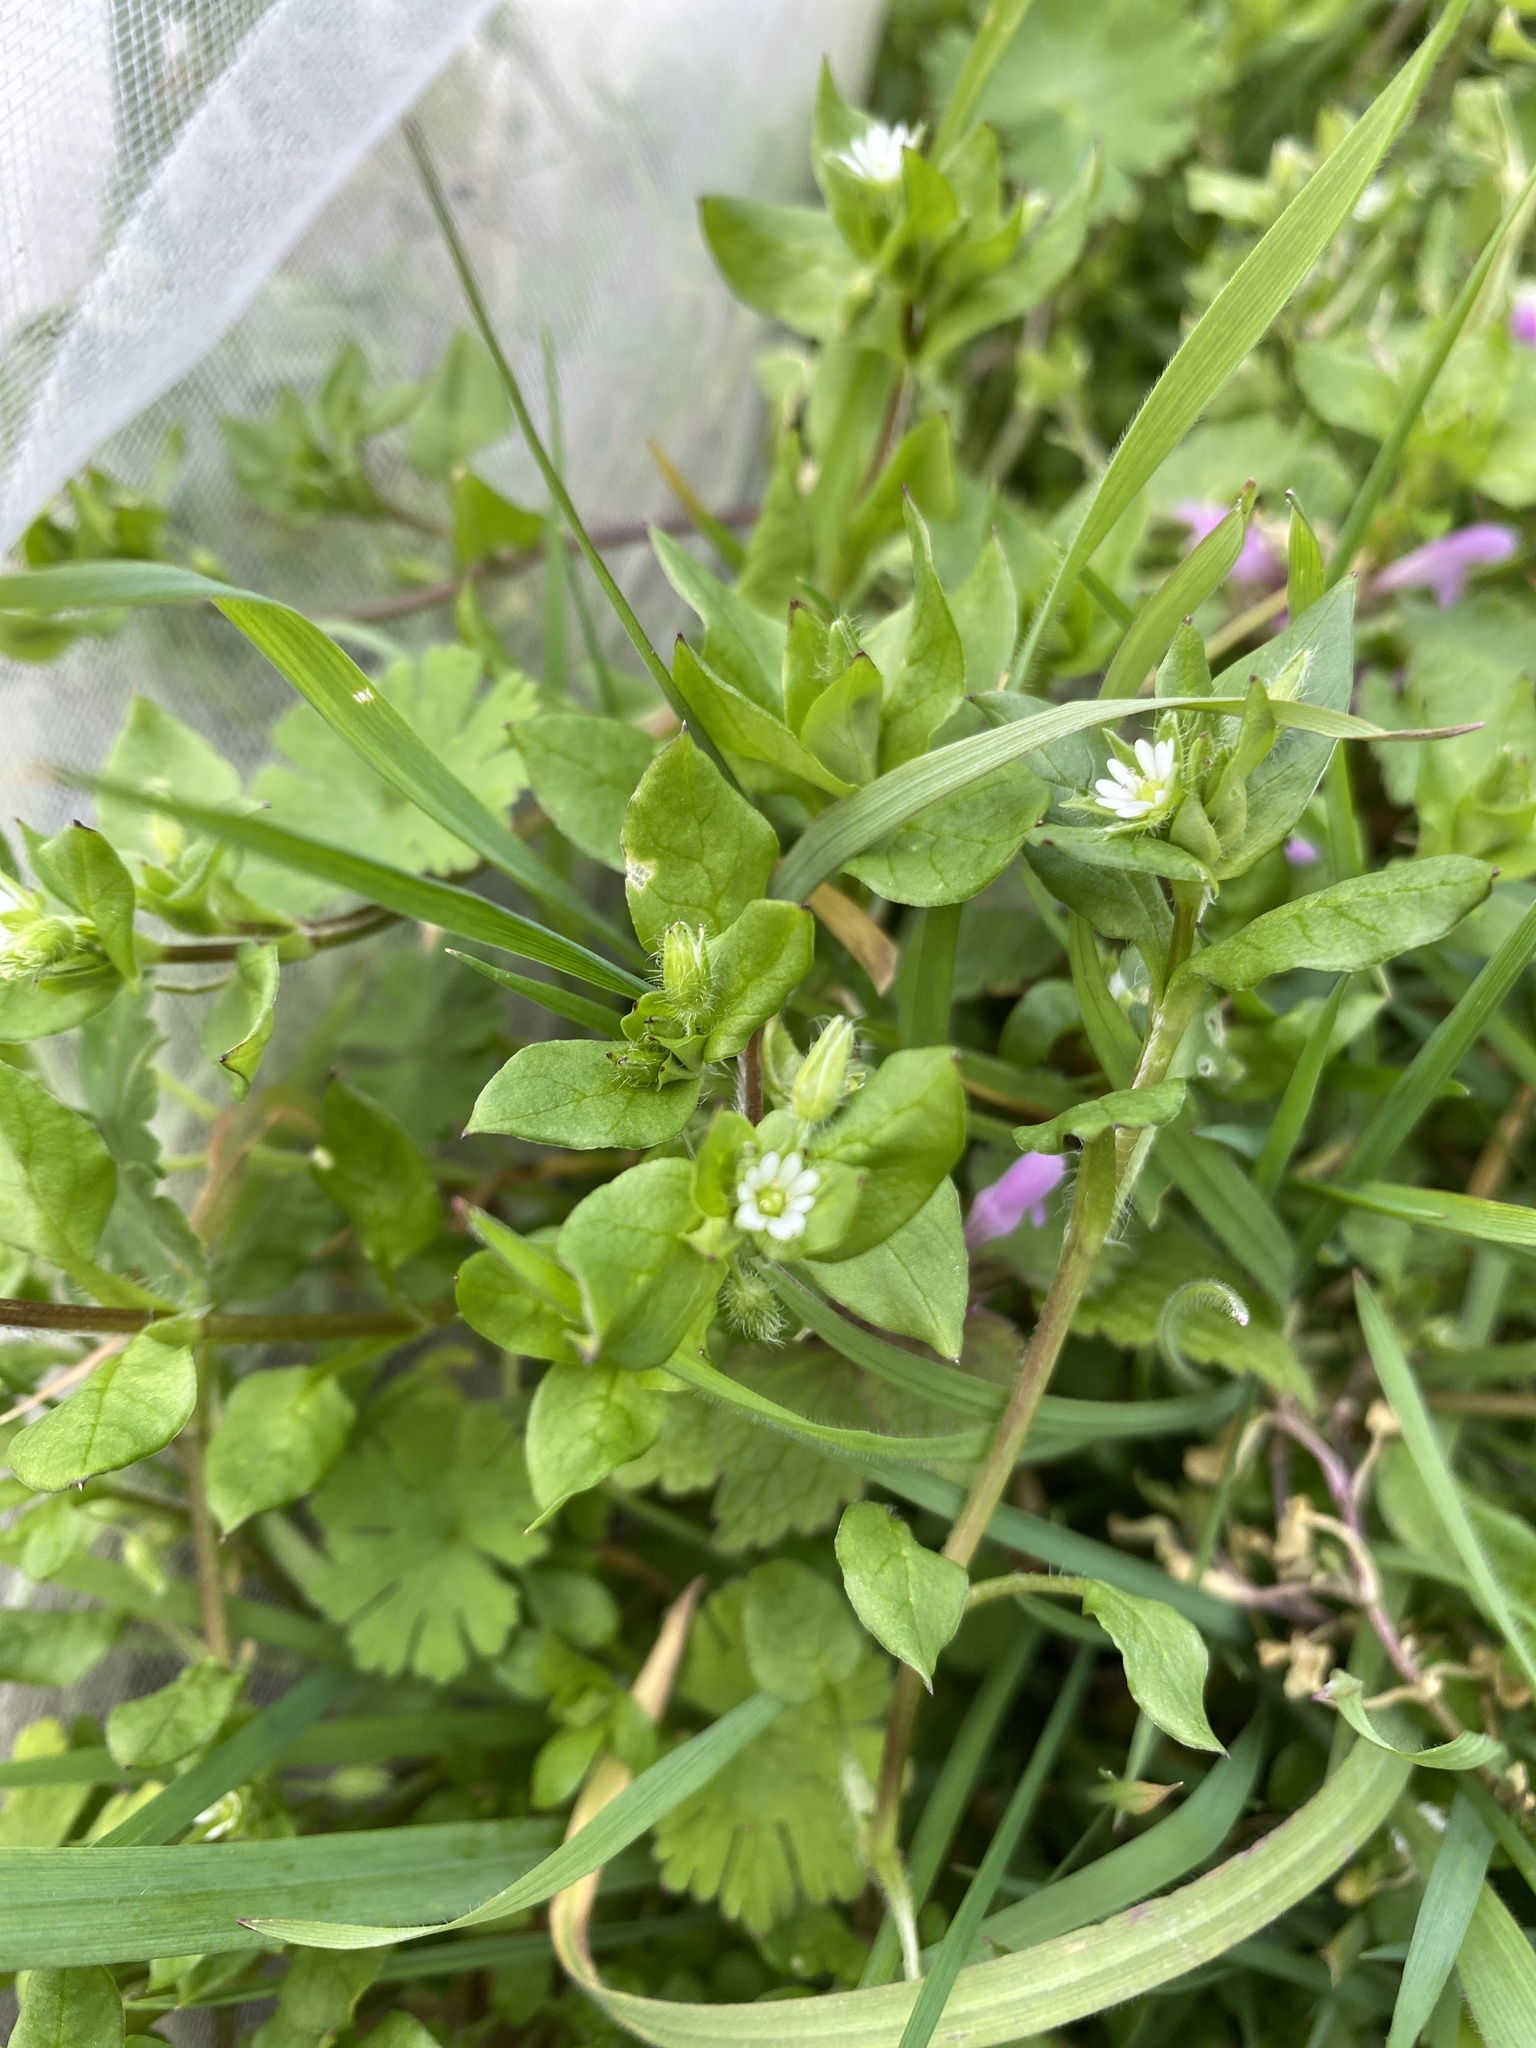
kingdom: Plantae
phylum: Tracheophyta
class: Magnoliopsida
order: Caryophyllales
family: Caryophyllaceae
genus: Stellaria
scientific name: Stellaria media
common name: Common chickweed
